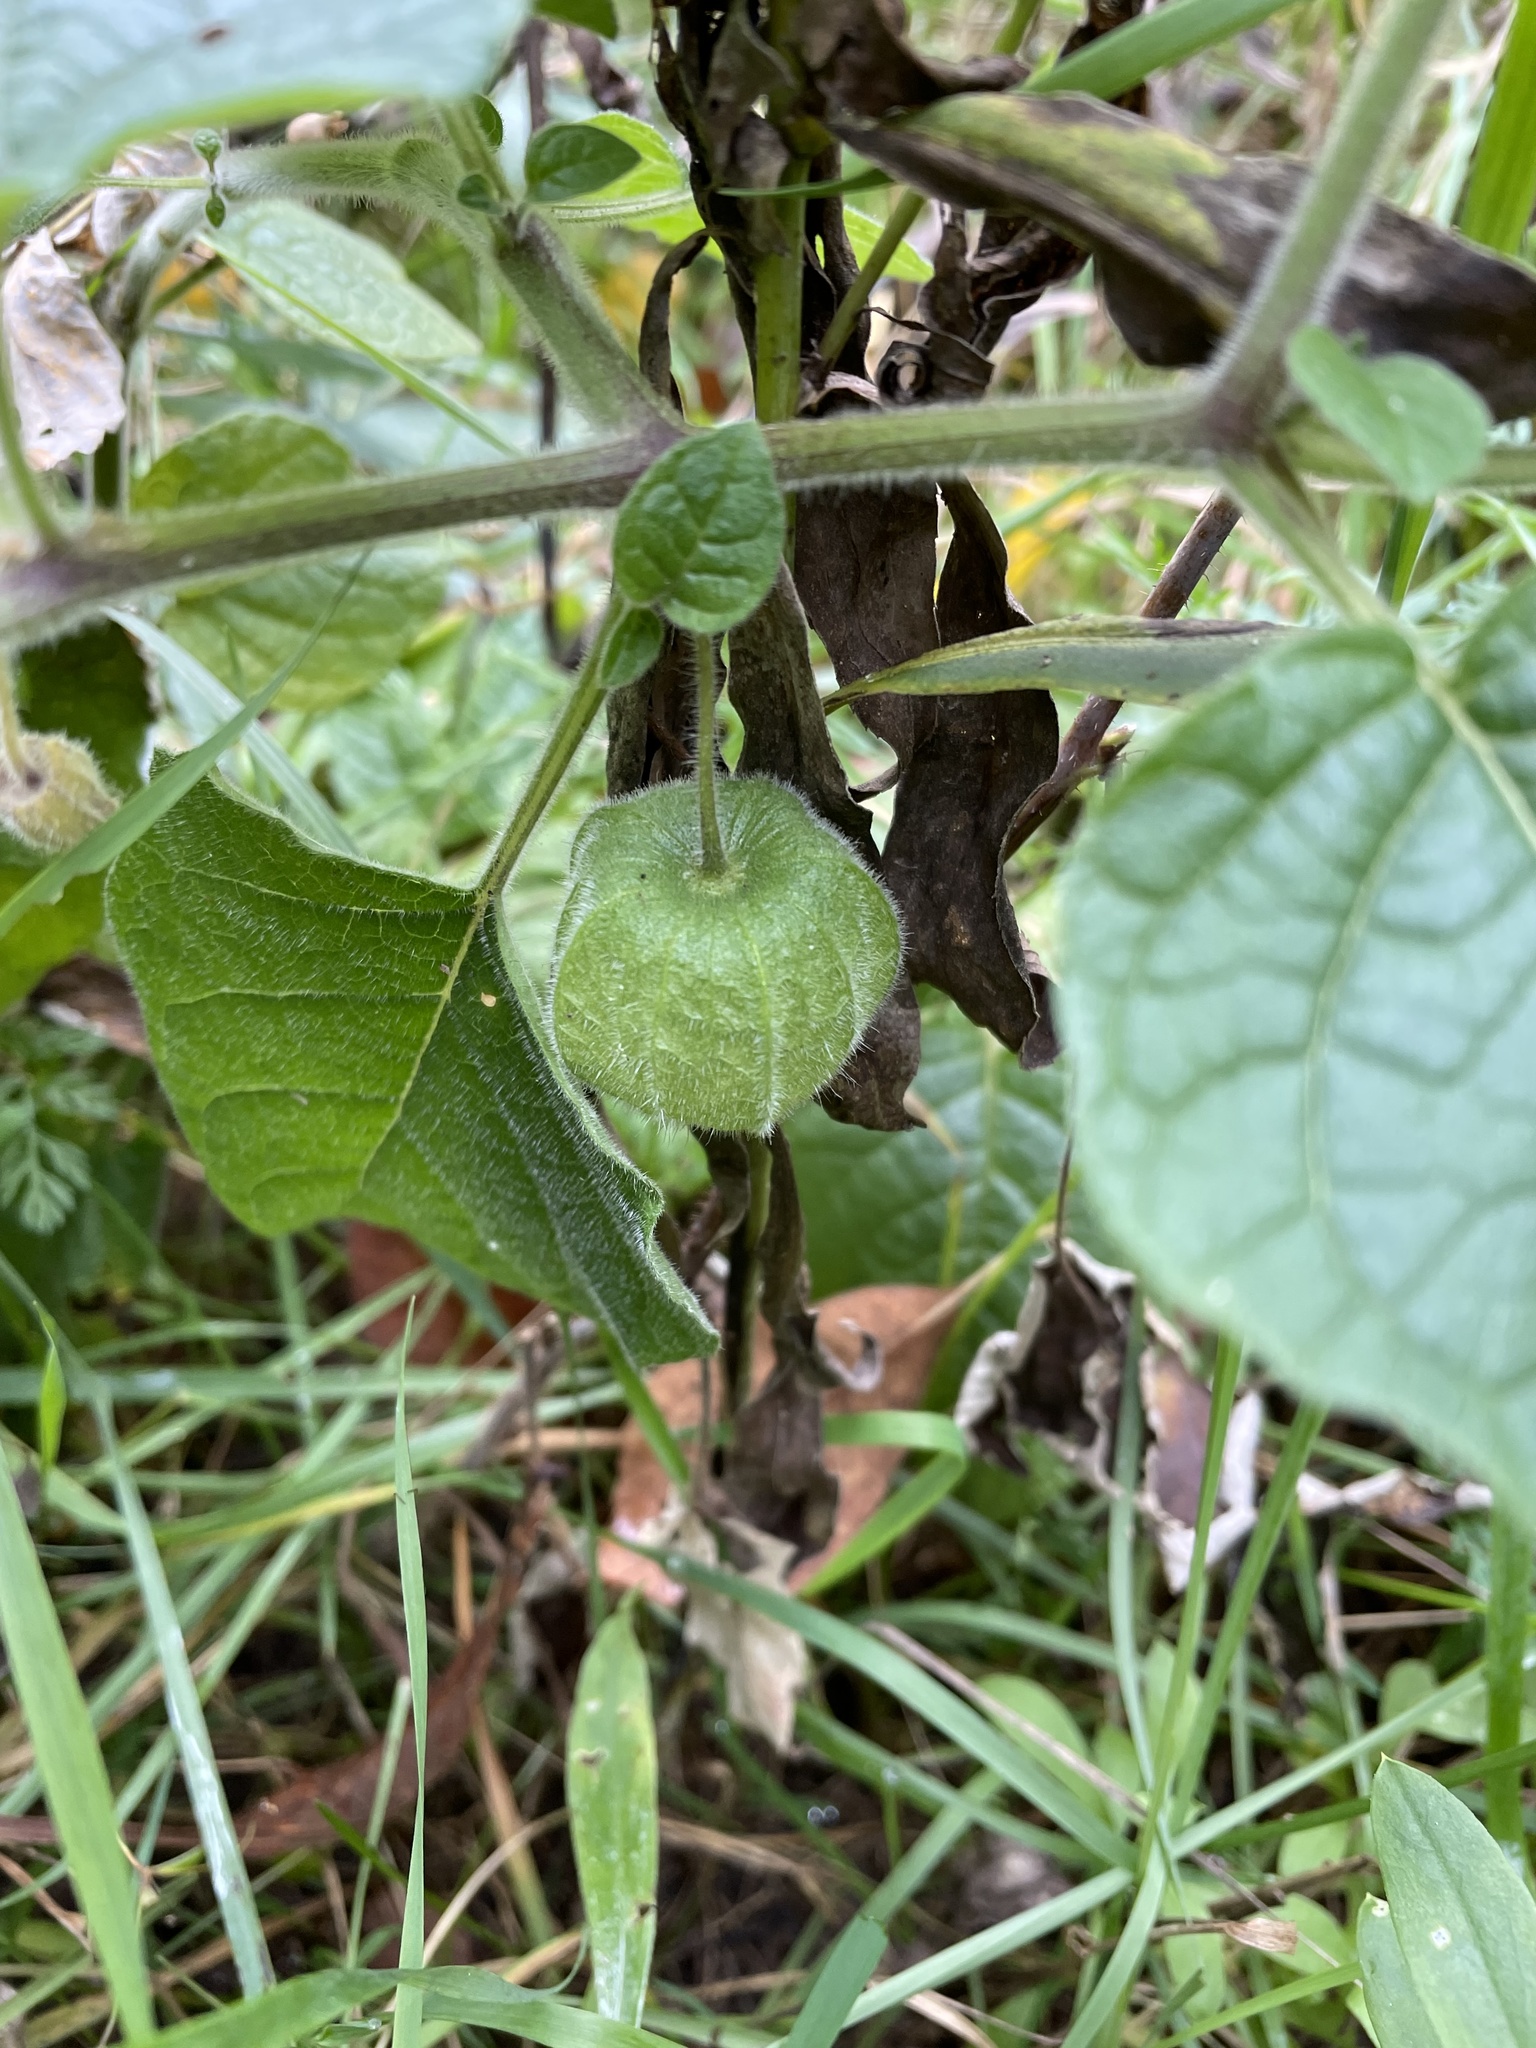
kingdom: Plantae
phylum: Tracheophyta
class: Magnoliopsida
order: Solanales
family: Solanaceae
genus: Physalis
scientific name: Physalis heterophylla
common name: Clammy ground-cherry
